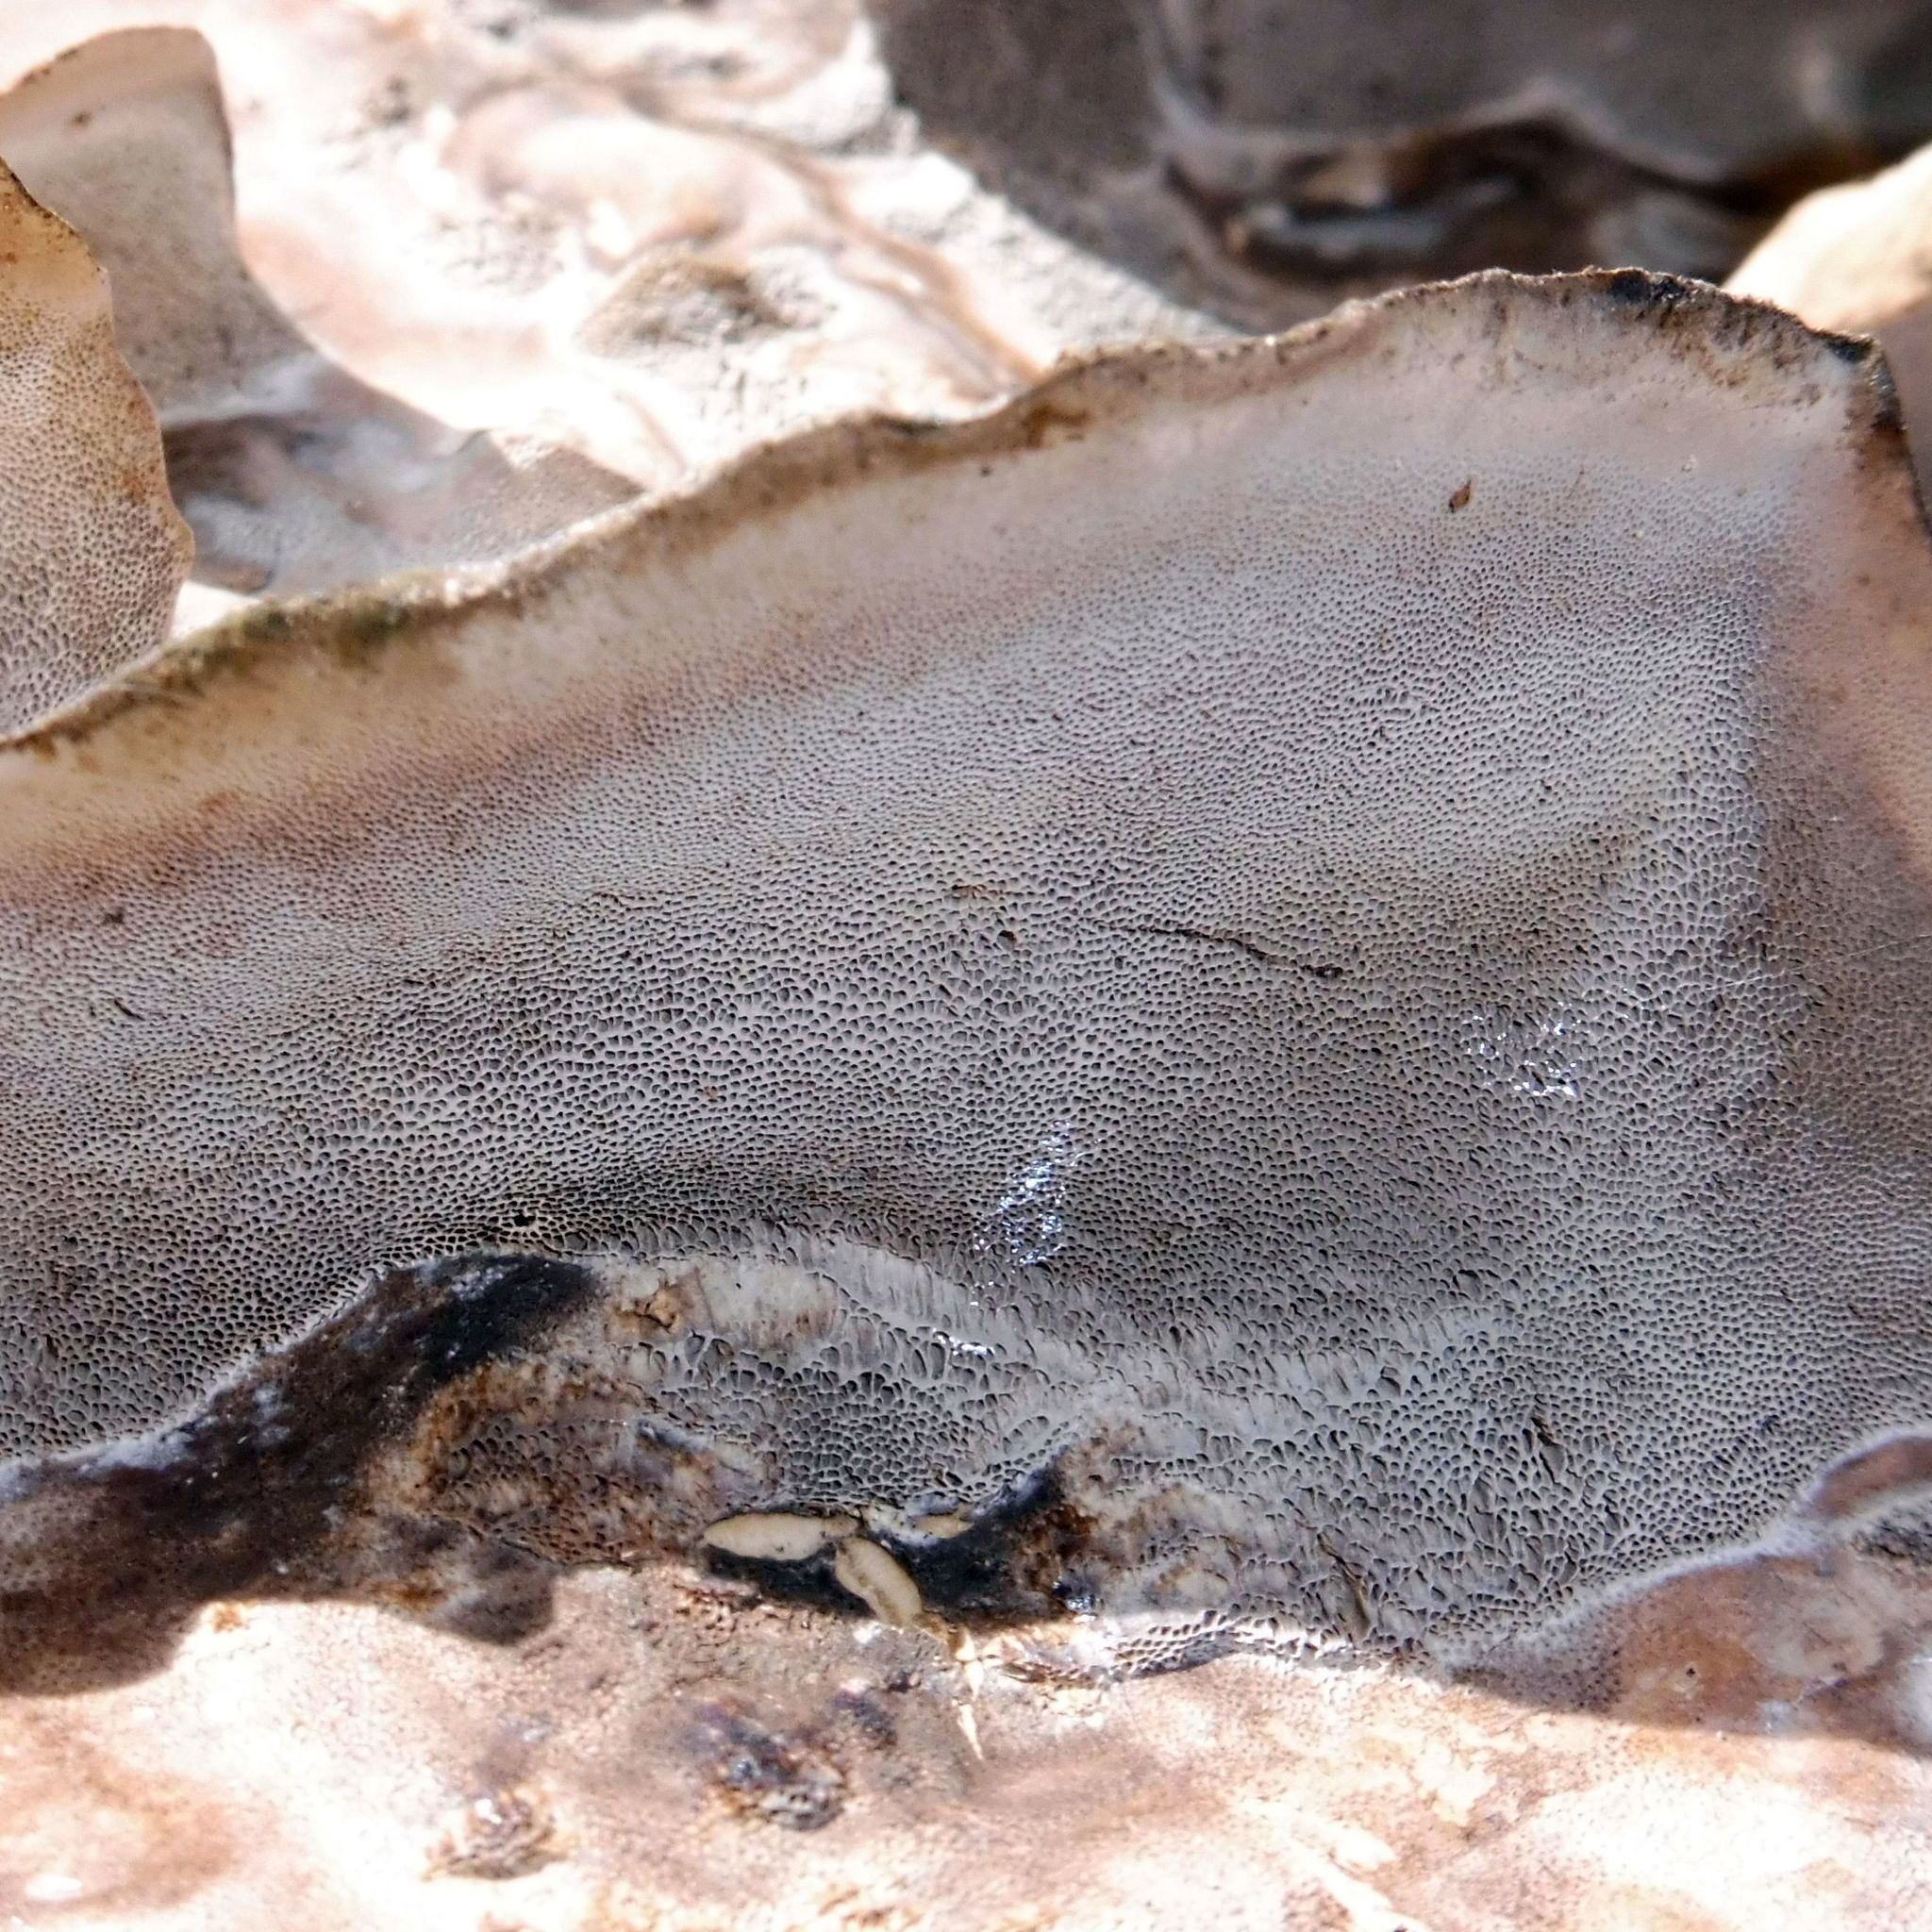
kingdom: Fungi
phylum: Basidiomycota
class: Agaricomycetes
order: Polyporales
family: Phanerochaetaceae
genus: Bjerkandera
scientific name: Bjerkandera adusta
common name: Smoky bracket
